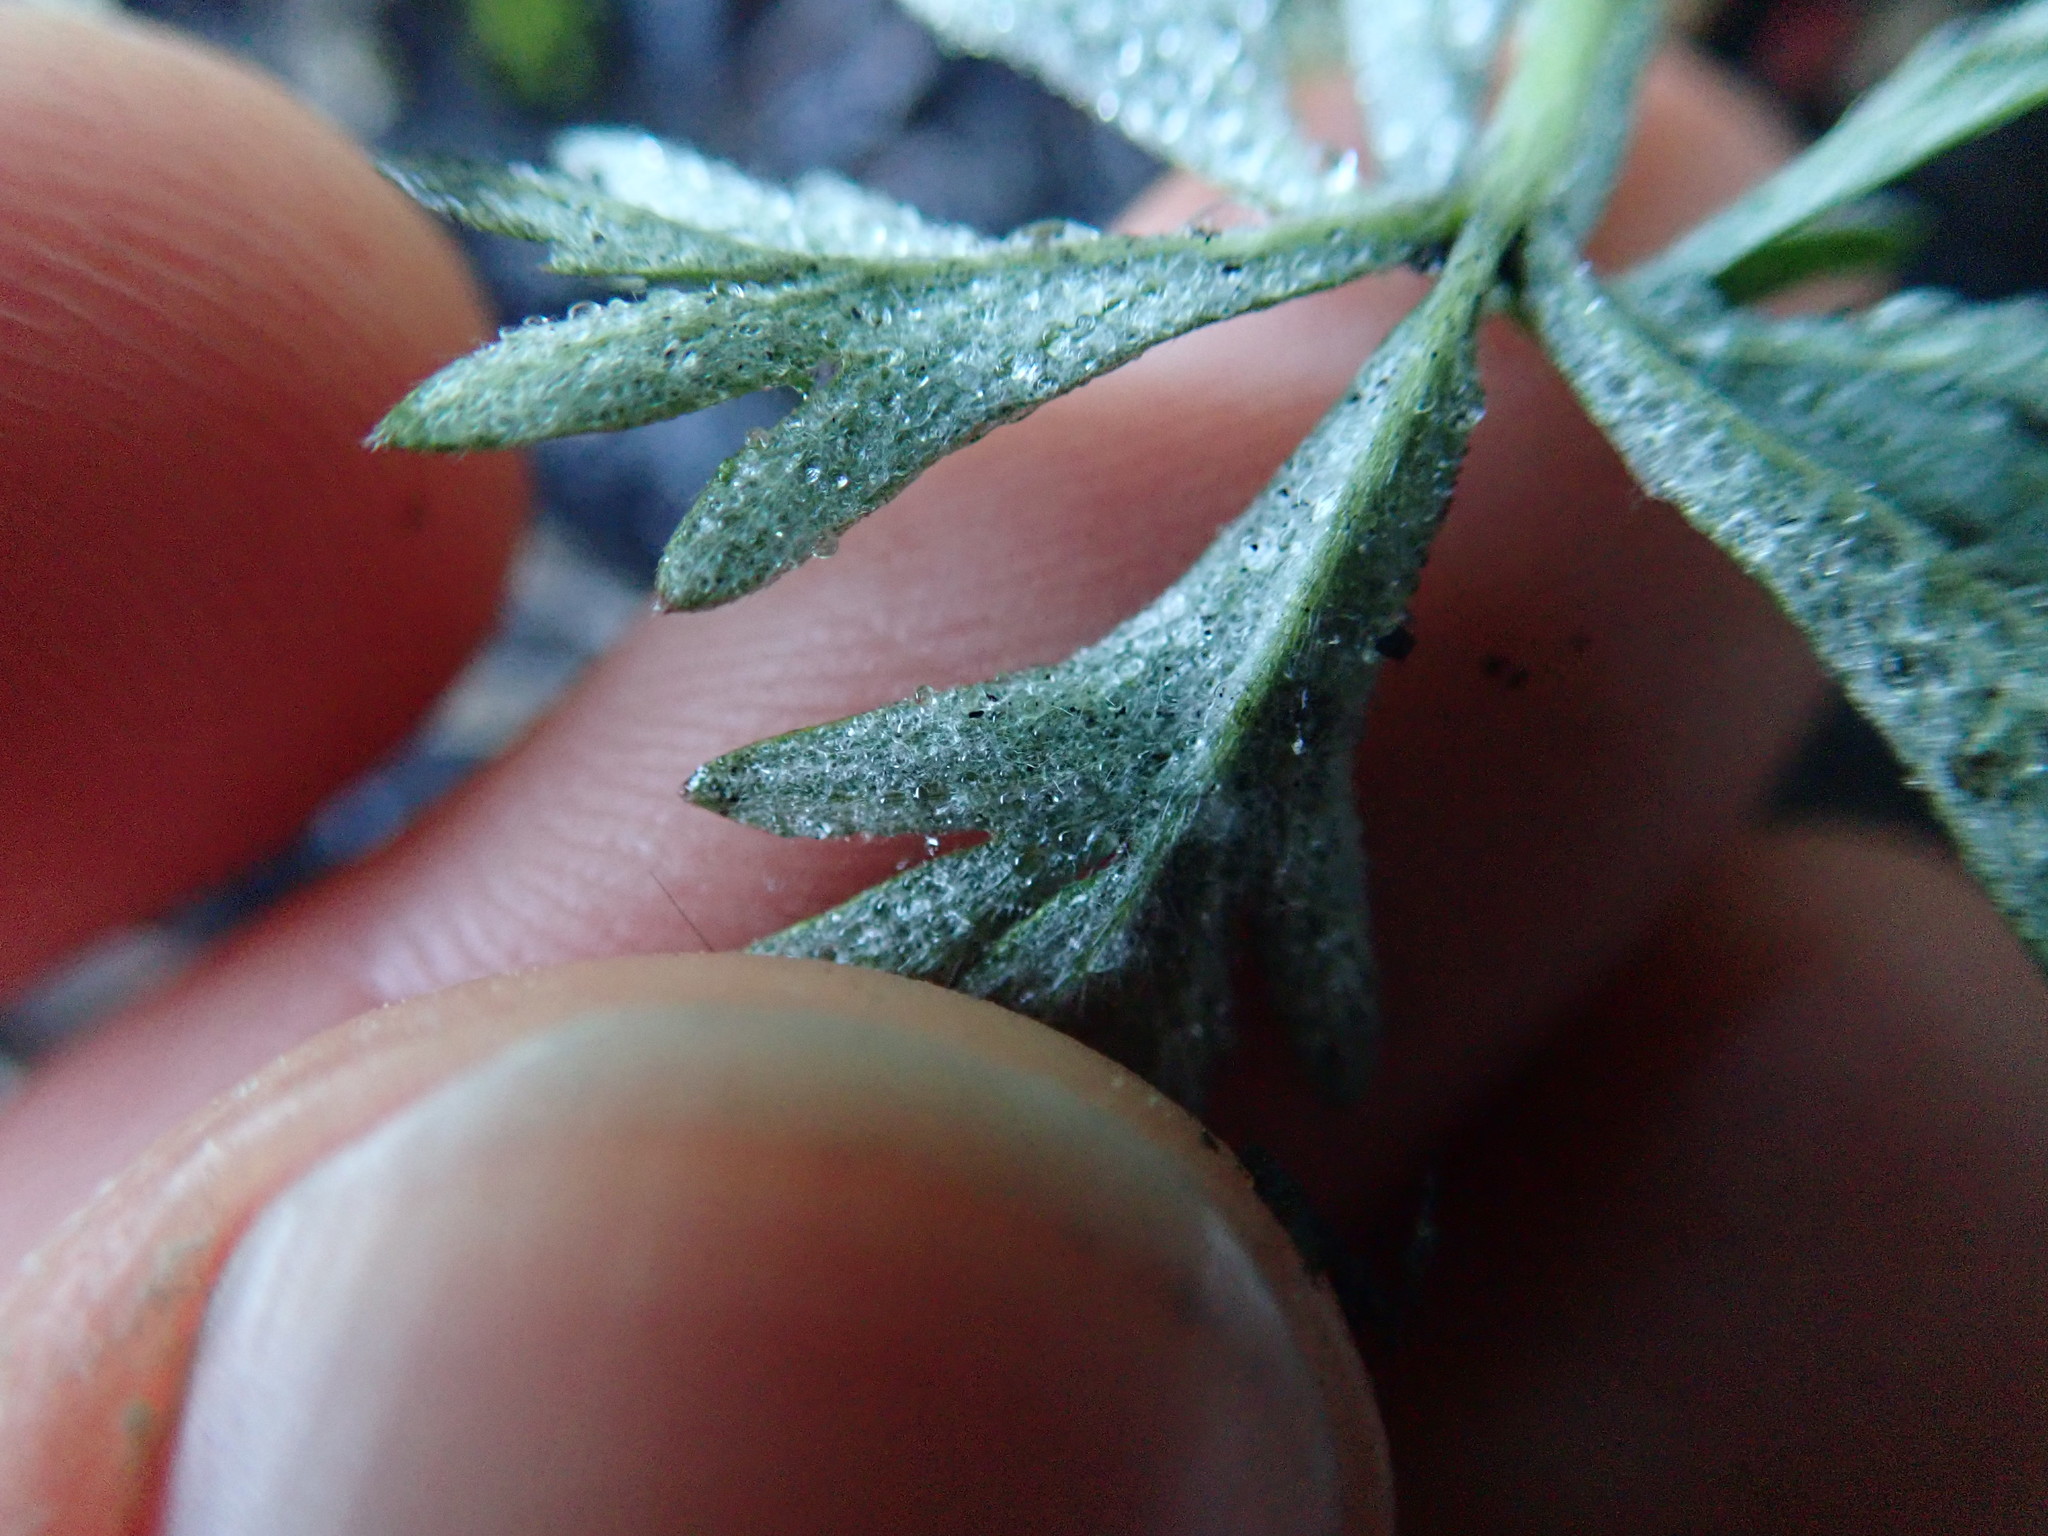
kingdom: Plantae
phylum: Tracheophyta
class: Magnoliopsida
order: Rosales
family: Rosaceae
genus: Potentilla
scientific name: Potentilla argentea
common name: Hoary cinquefoil
